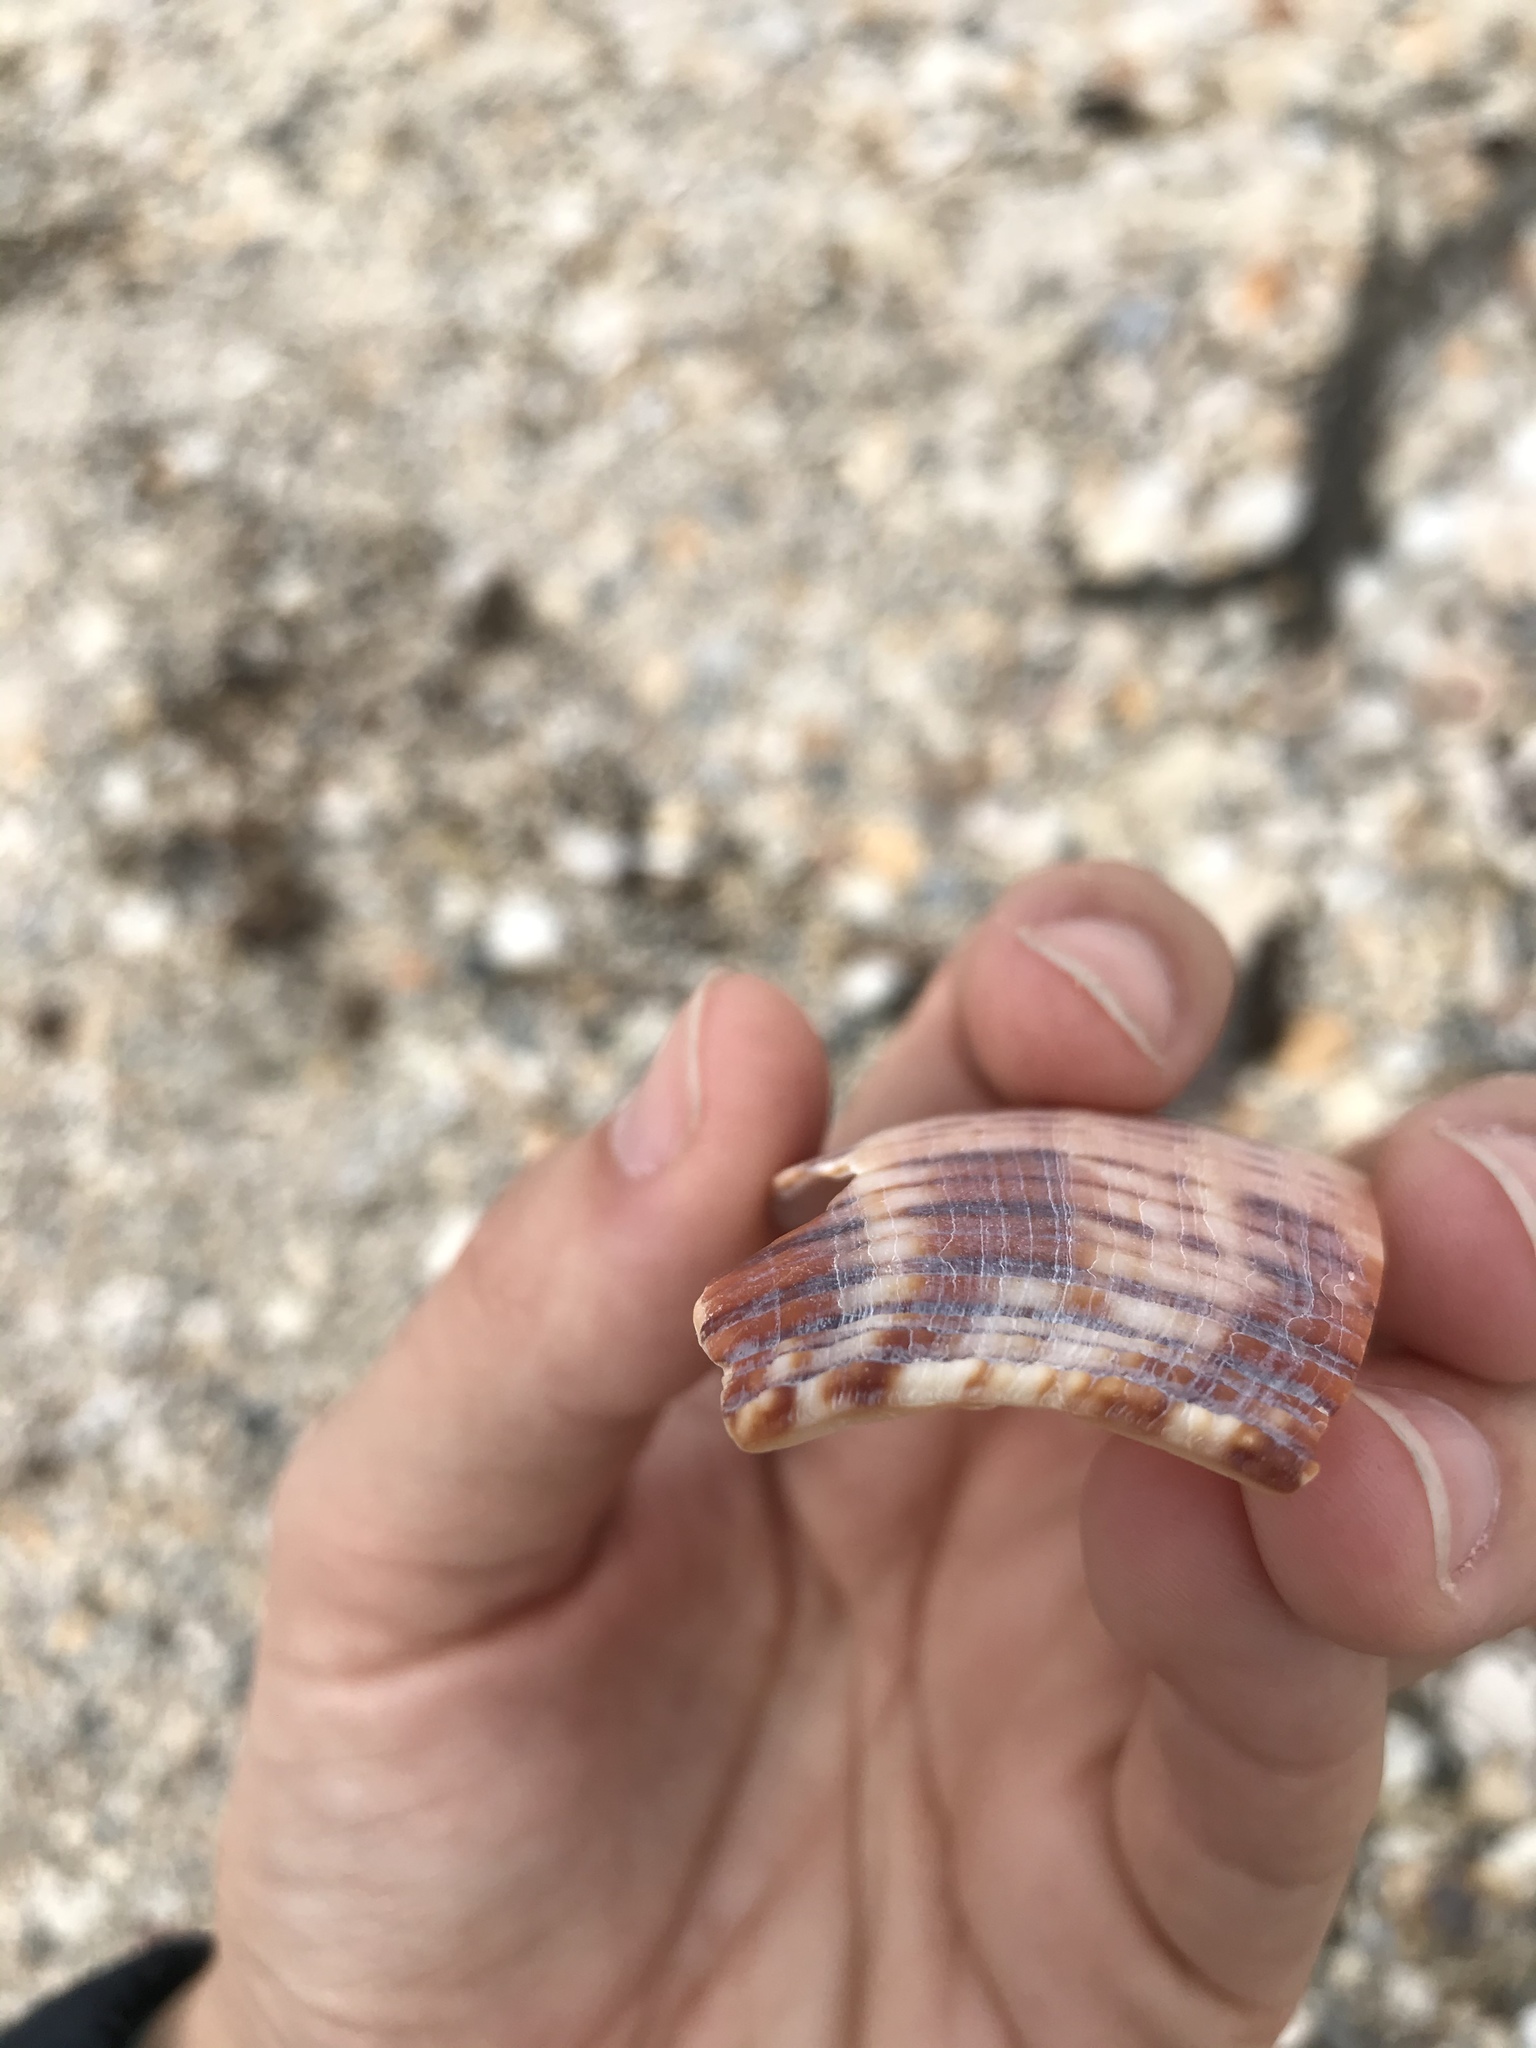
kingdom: Animalia
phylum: Mollusca
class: Gastropoda
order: Neogastropoda
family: Fasciolariidae
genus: Fasciolaria
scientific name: Fasciolaria tulipa
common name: True tulip
